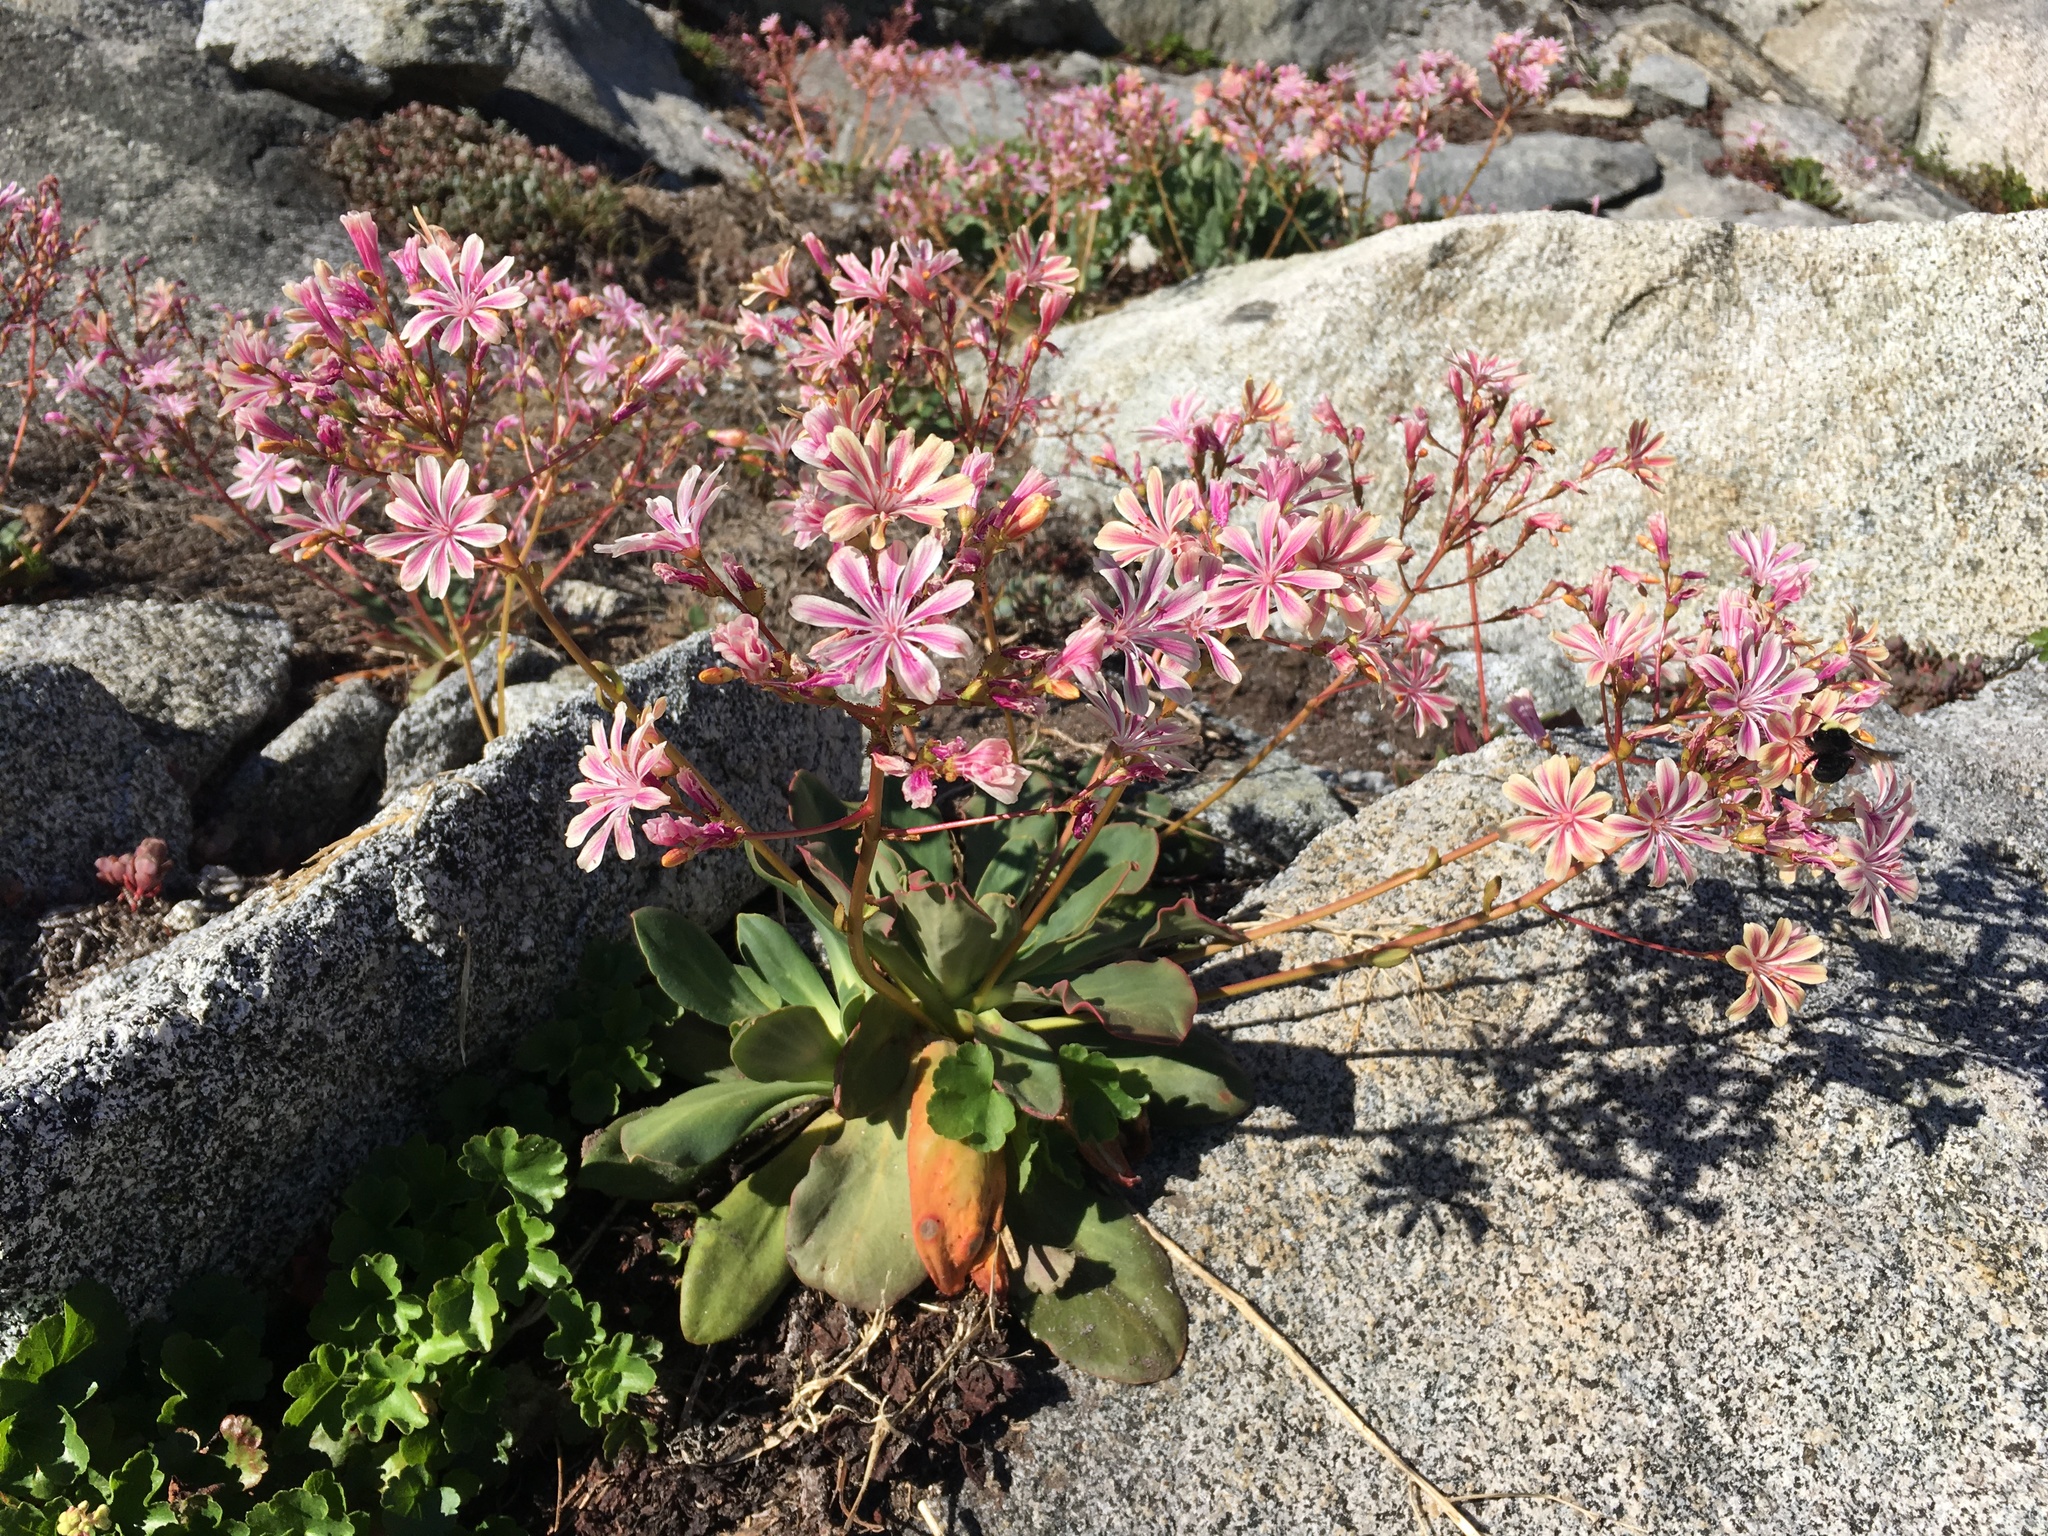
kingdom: Plantae
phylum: Tracheophyta
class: Magnoliopsida
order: Caryophyllales
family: Montiaceae
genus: Lewisia
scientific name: Lewisia cotyledon
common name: Siskiyou lewisia
